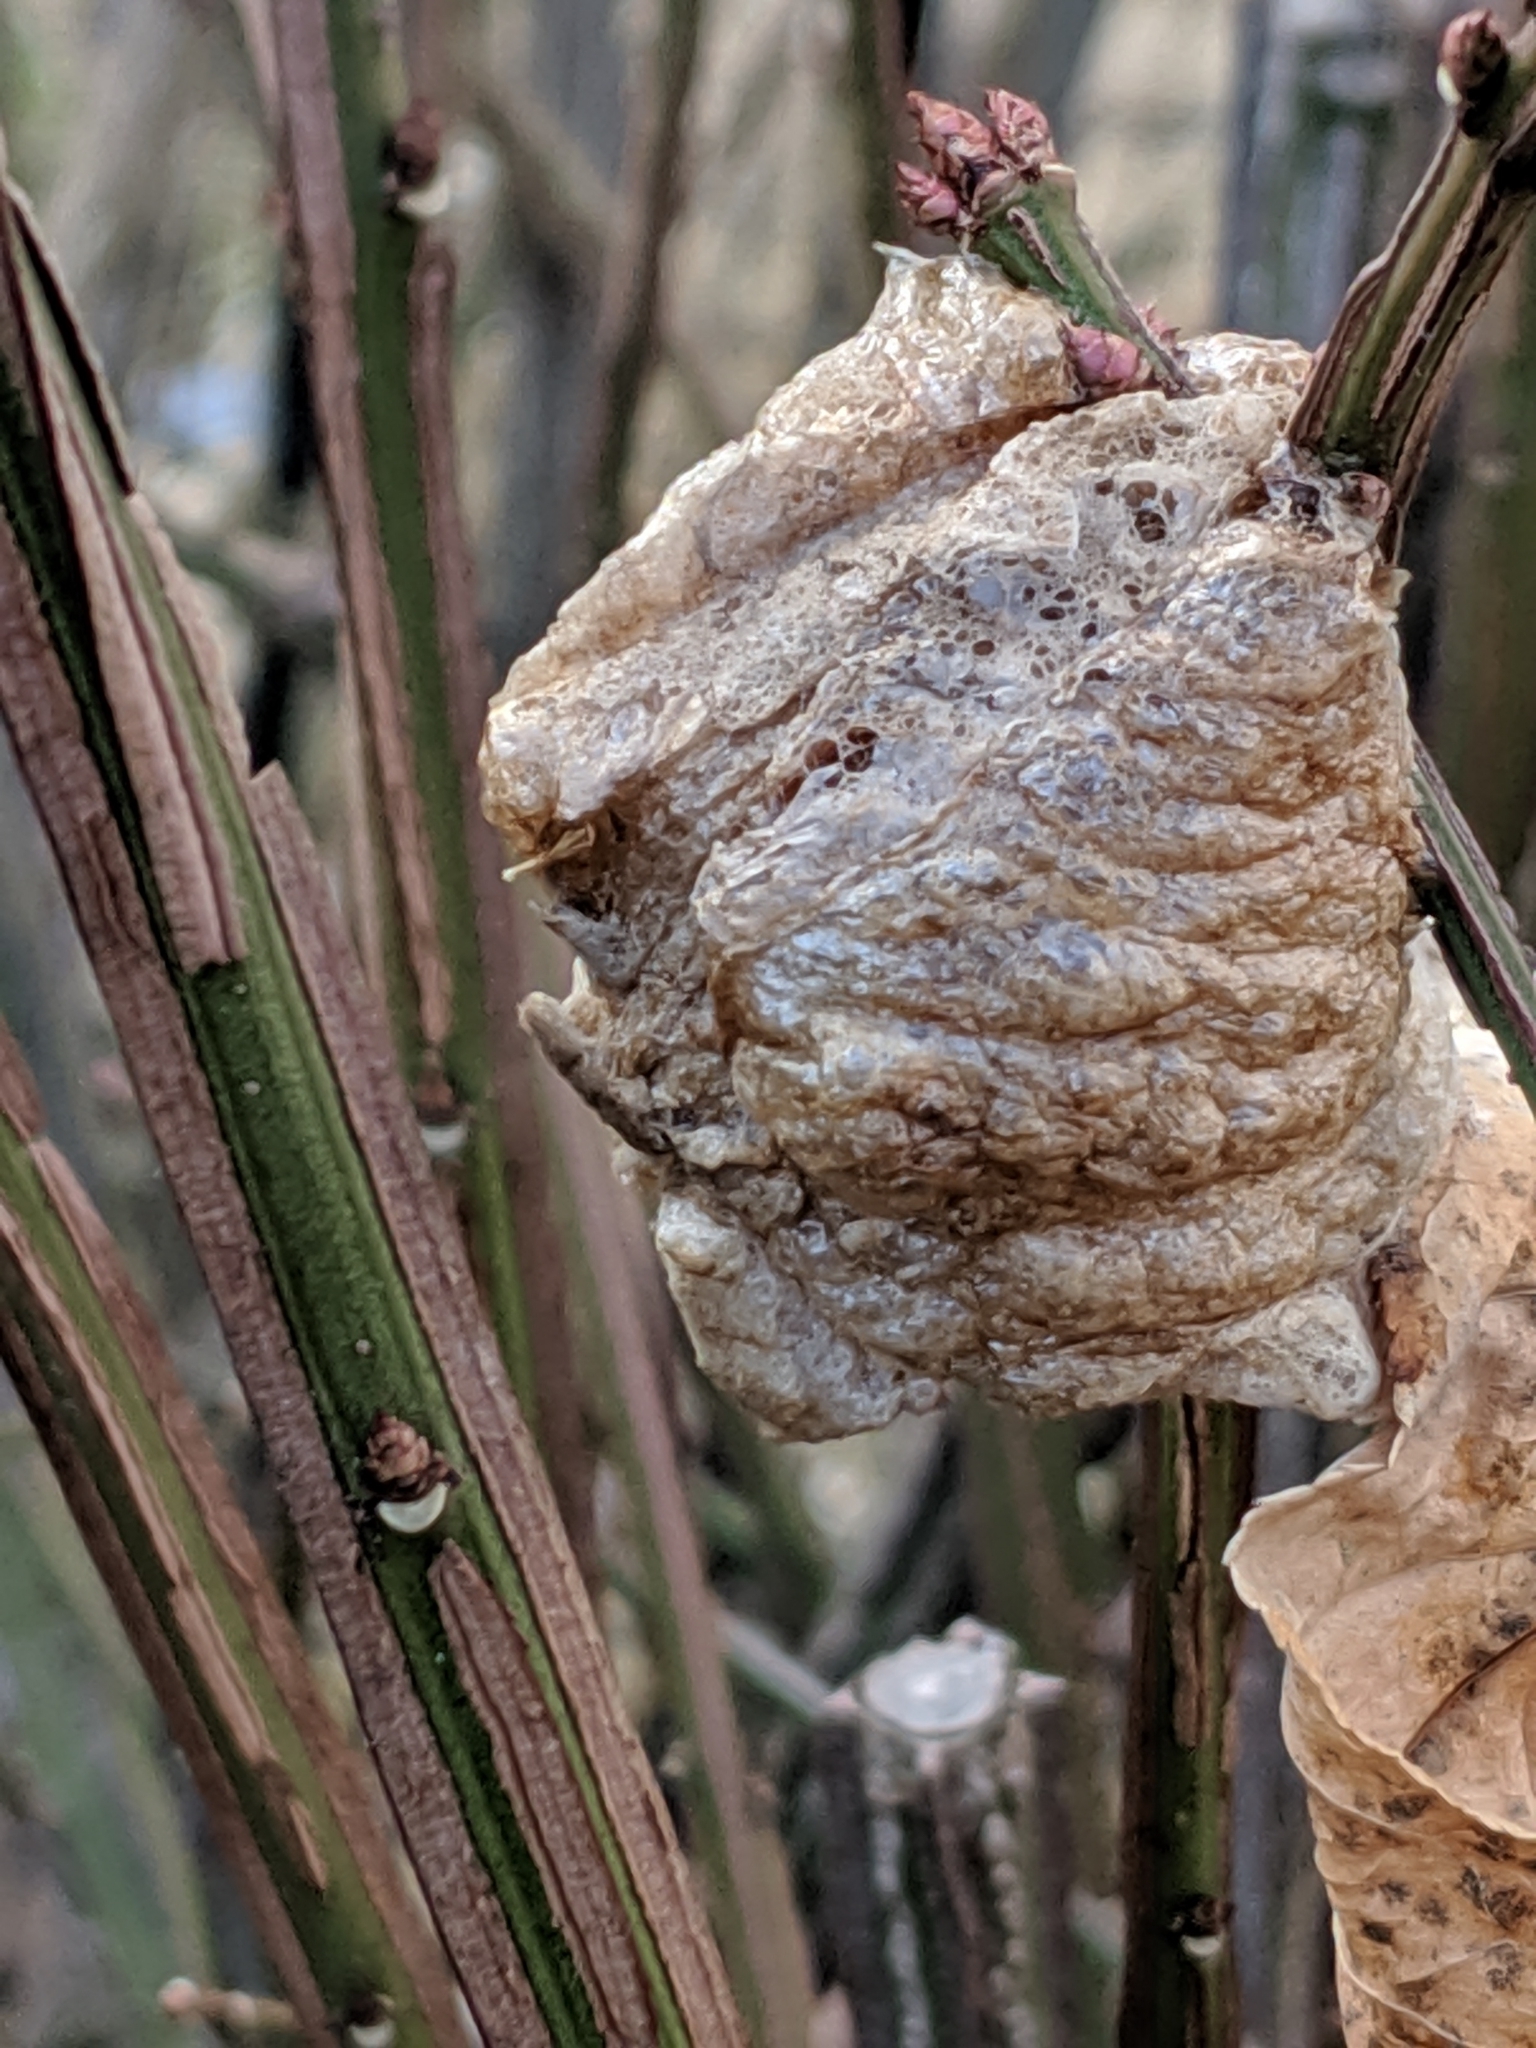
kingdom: Animalia
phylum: Arthropoda
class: Insecta
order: Mantodea
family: Mantidae
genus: Tenodera
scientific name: Tenodera sinensis
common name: Chinese mantis
